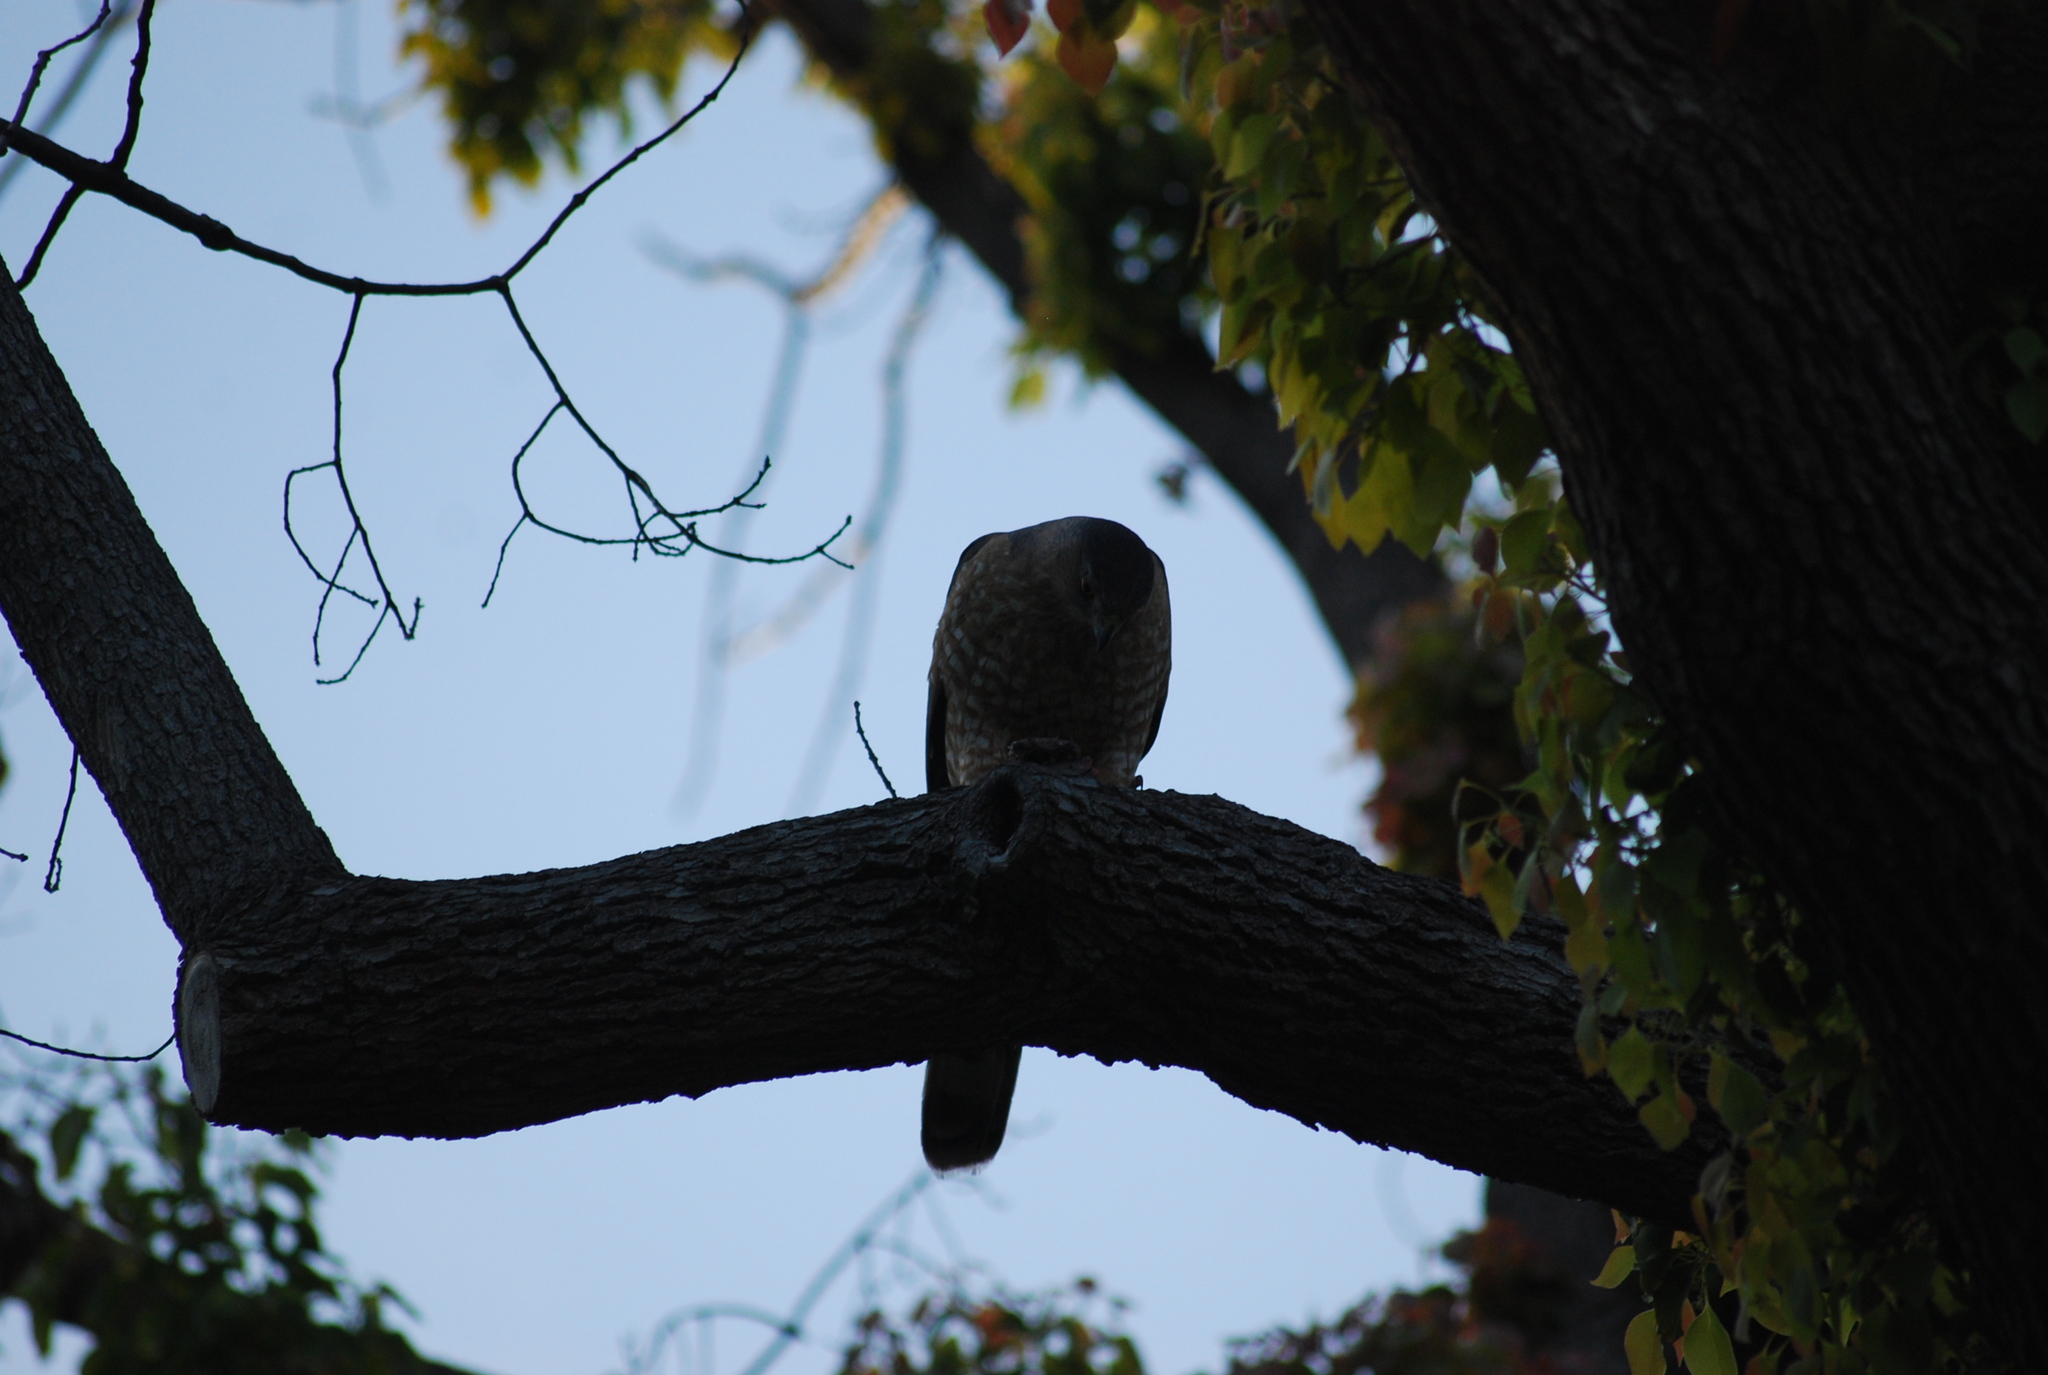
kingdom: Animalia
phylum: Chordata
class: Aves
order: Accipitriformes
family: Accipitridae
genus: Accipiter
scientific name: Accipiter cooperii
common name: Cooper's hawk
